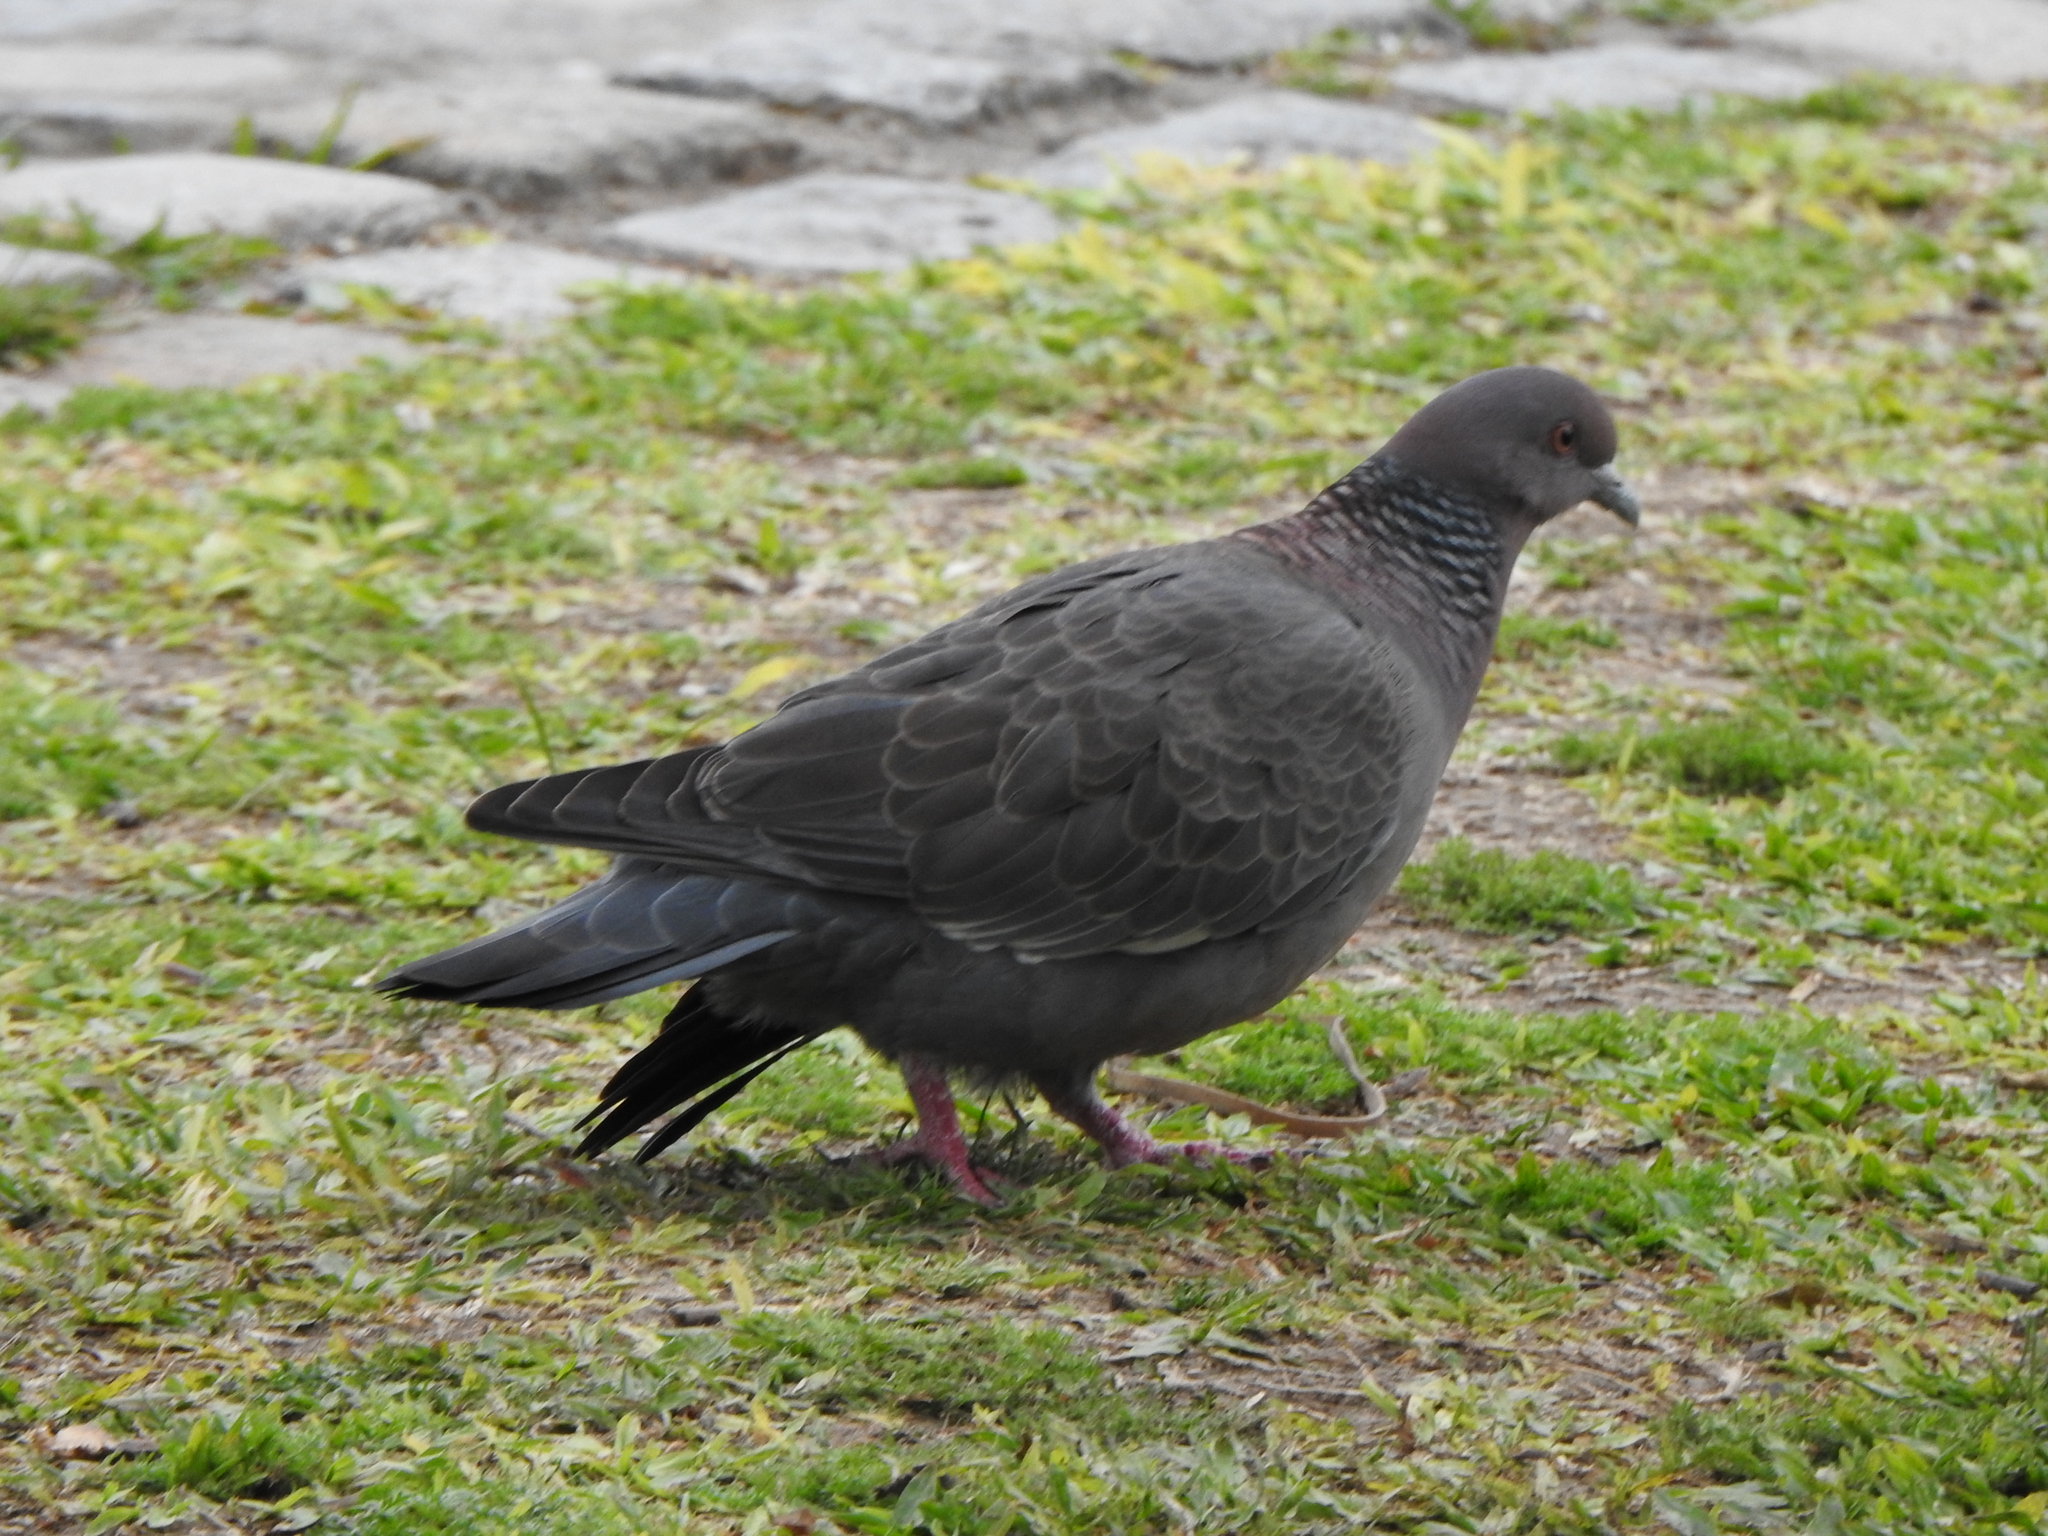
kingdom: Animalia
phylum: Chordata
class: Aves
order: Columbiformes
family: Columbidae
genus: Patagioenas
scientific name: Patagioenas picazuro
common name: Picazuro pigeon
